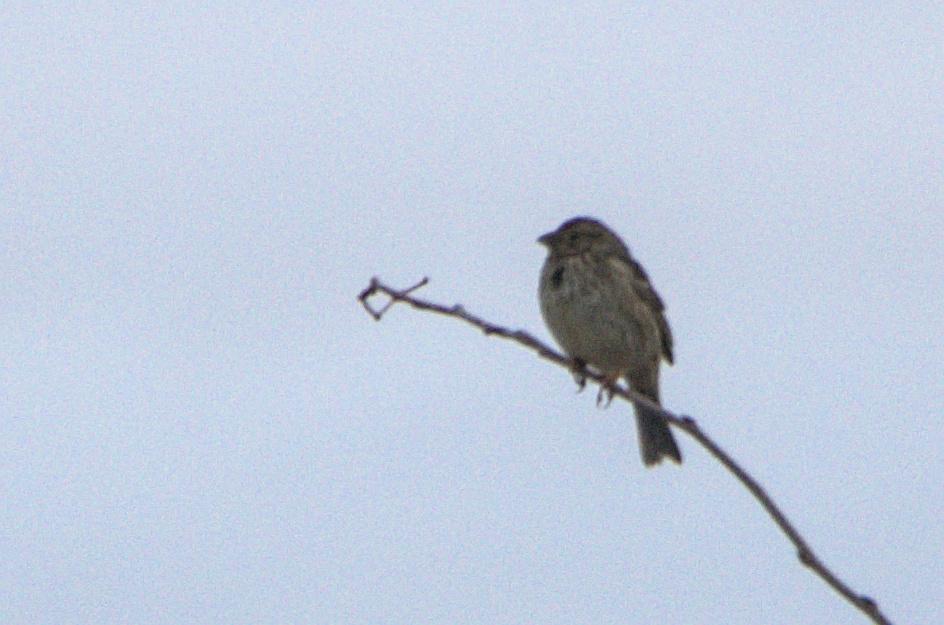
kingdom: Animalia
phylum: Chordata
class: Aves
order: Passeriformes
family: Emberizidae
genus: Emberiza
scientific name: Emberiza calandra
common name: Corn bunting
